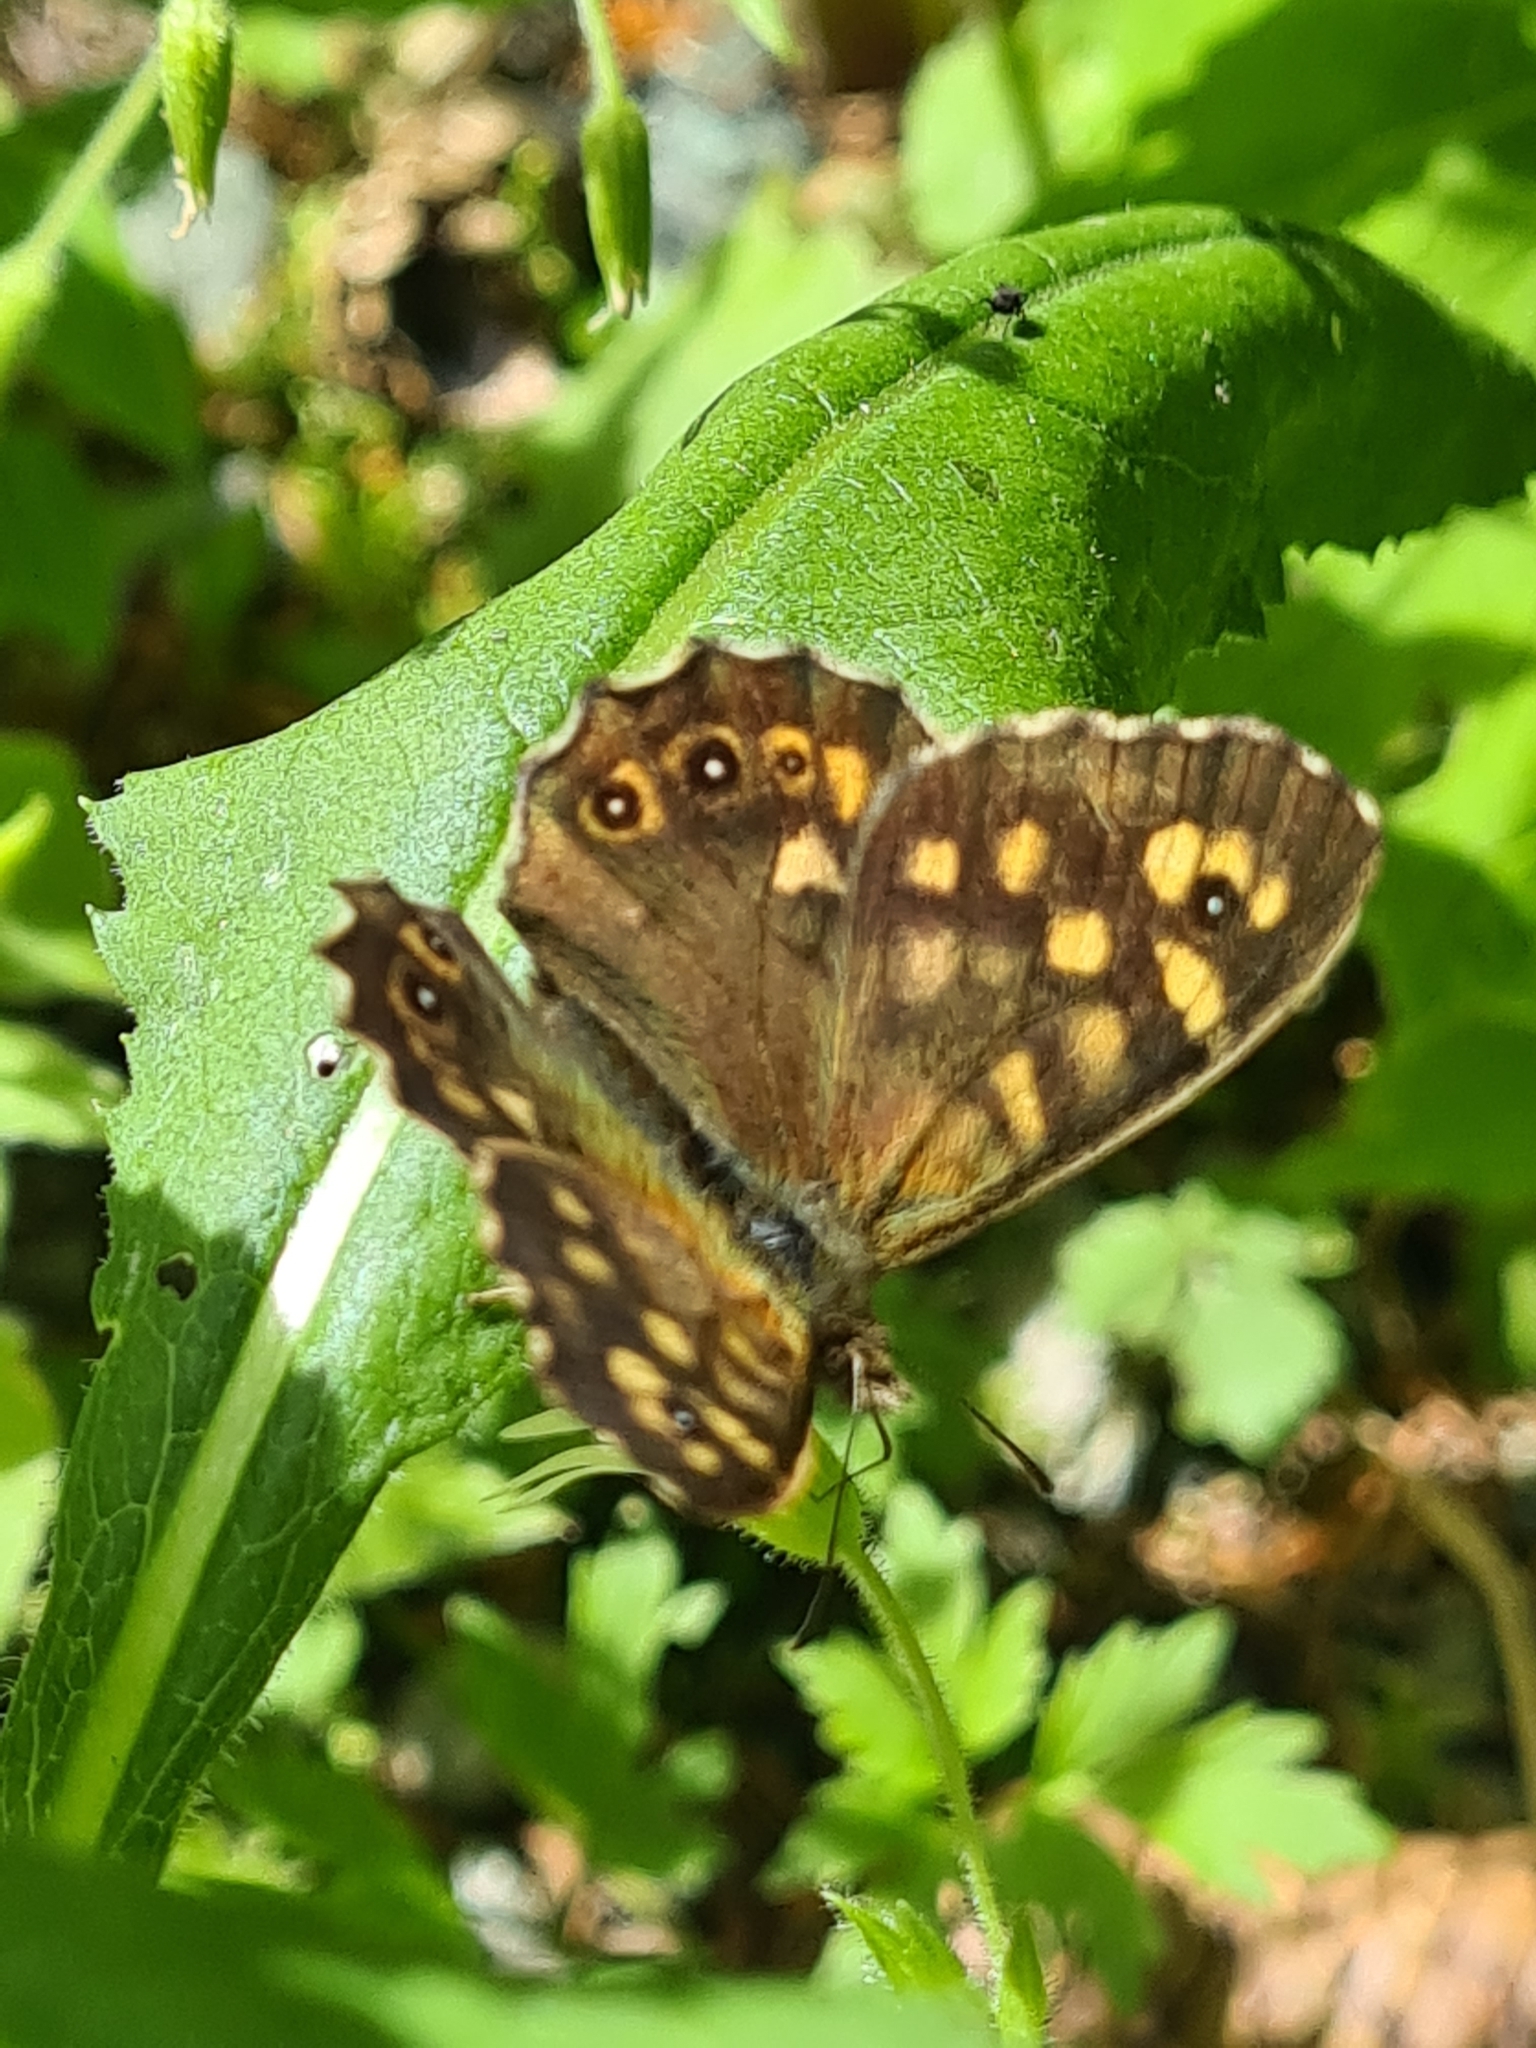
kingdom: Animalia
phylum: Arthropoda
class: Insecta
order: Lepidoptera
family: Nymphalidae
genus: Pararge
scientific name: Pararge aegeria
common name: Speckled wood
